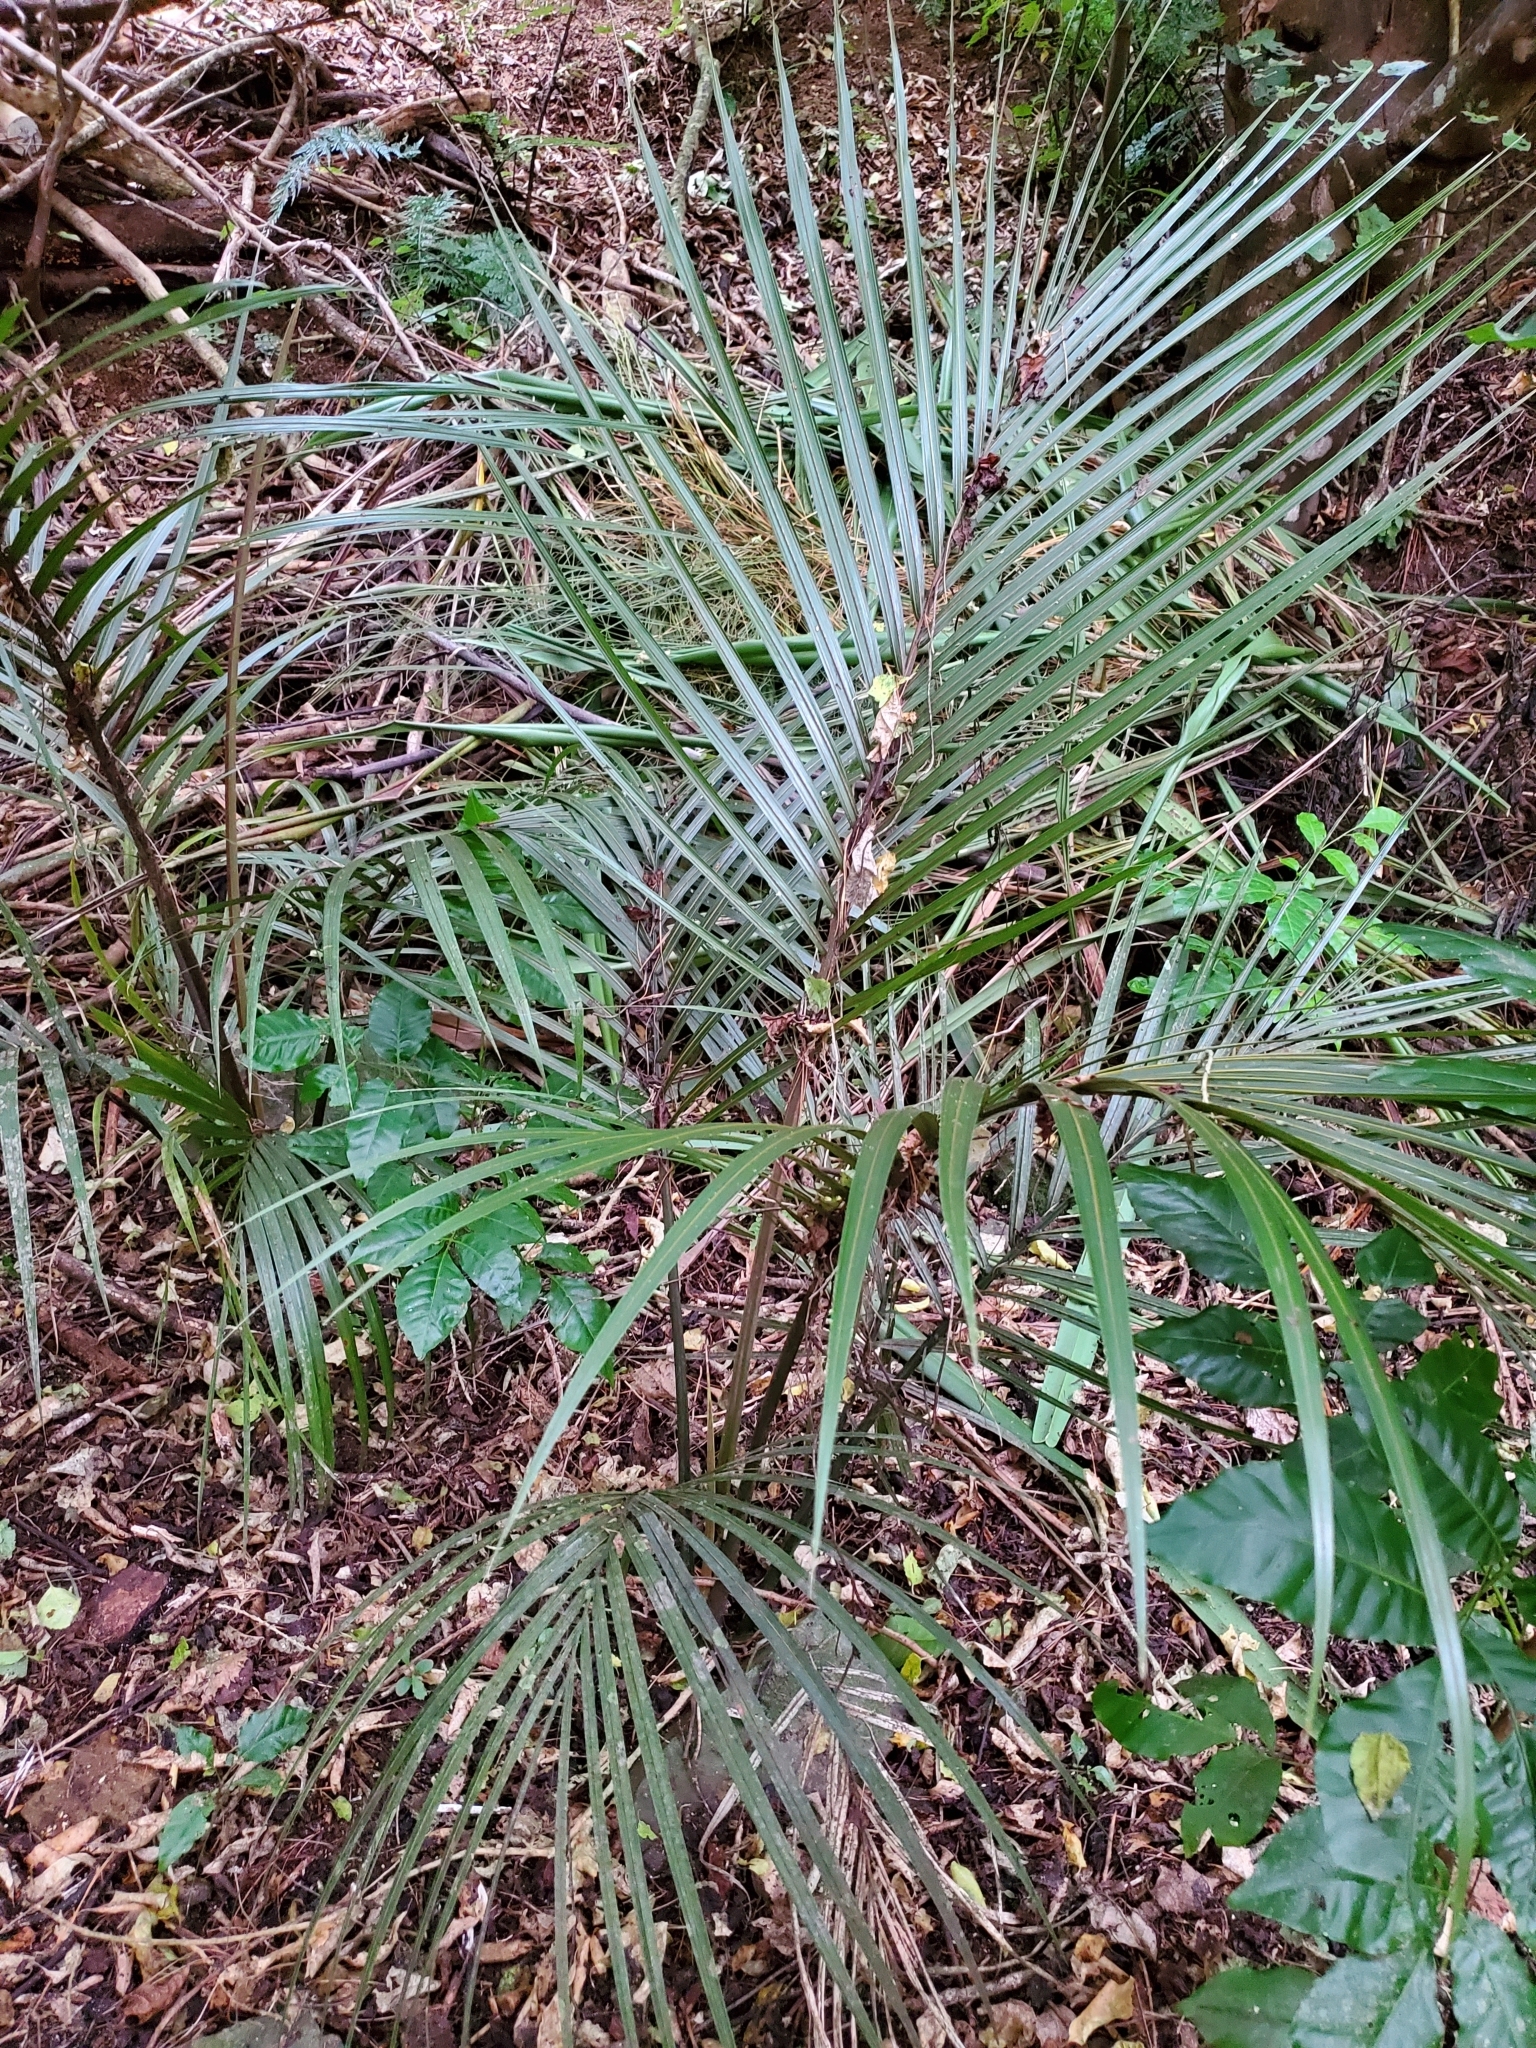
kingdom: Plantae
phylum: Tracheophyta
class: Liliopsida
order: Arecales
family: Arecaceae
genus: Rhopalostylis
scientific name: Rhopalostylis sapida
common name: Feather-duster palm
